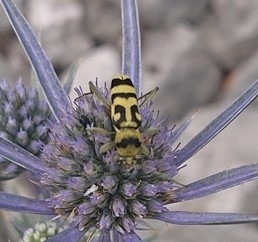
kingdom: Animalia
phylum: Arthropoda
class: Insecta
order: Coleoptera
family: Cerambycidae
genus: Chlorophorus
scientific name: Chlorophorus varius
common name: Grape wood borer
